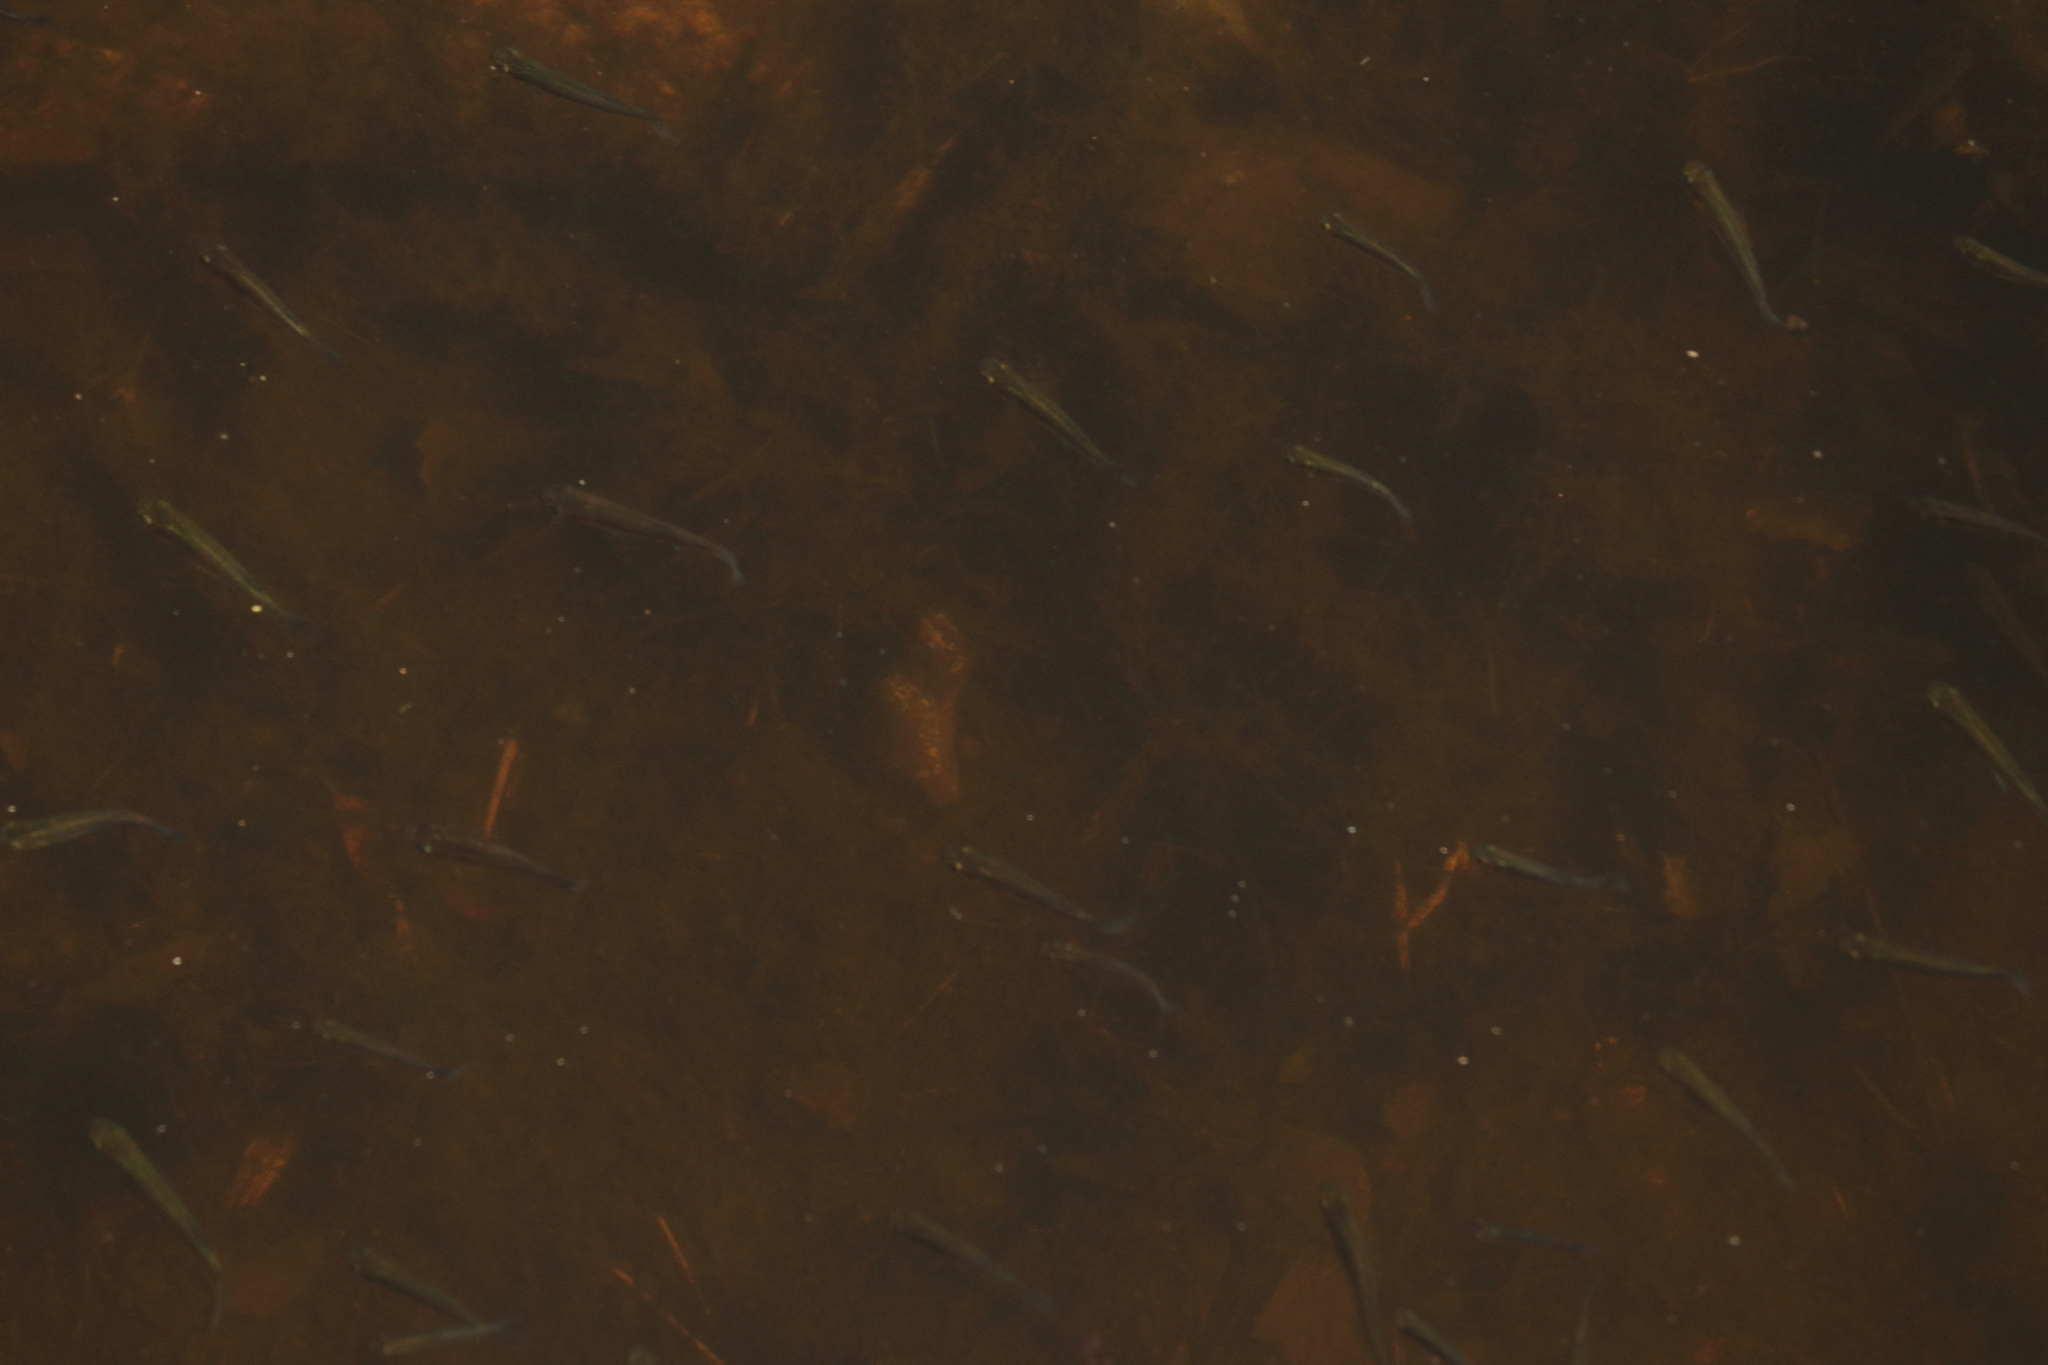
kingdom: Animalia
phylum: Chordata
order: Cyprinodontiformes
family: Poeciliidae
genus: Gambusia
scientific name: Gambusia holbrooki
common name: Eastern mosquitofish
